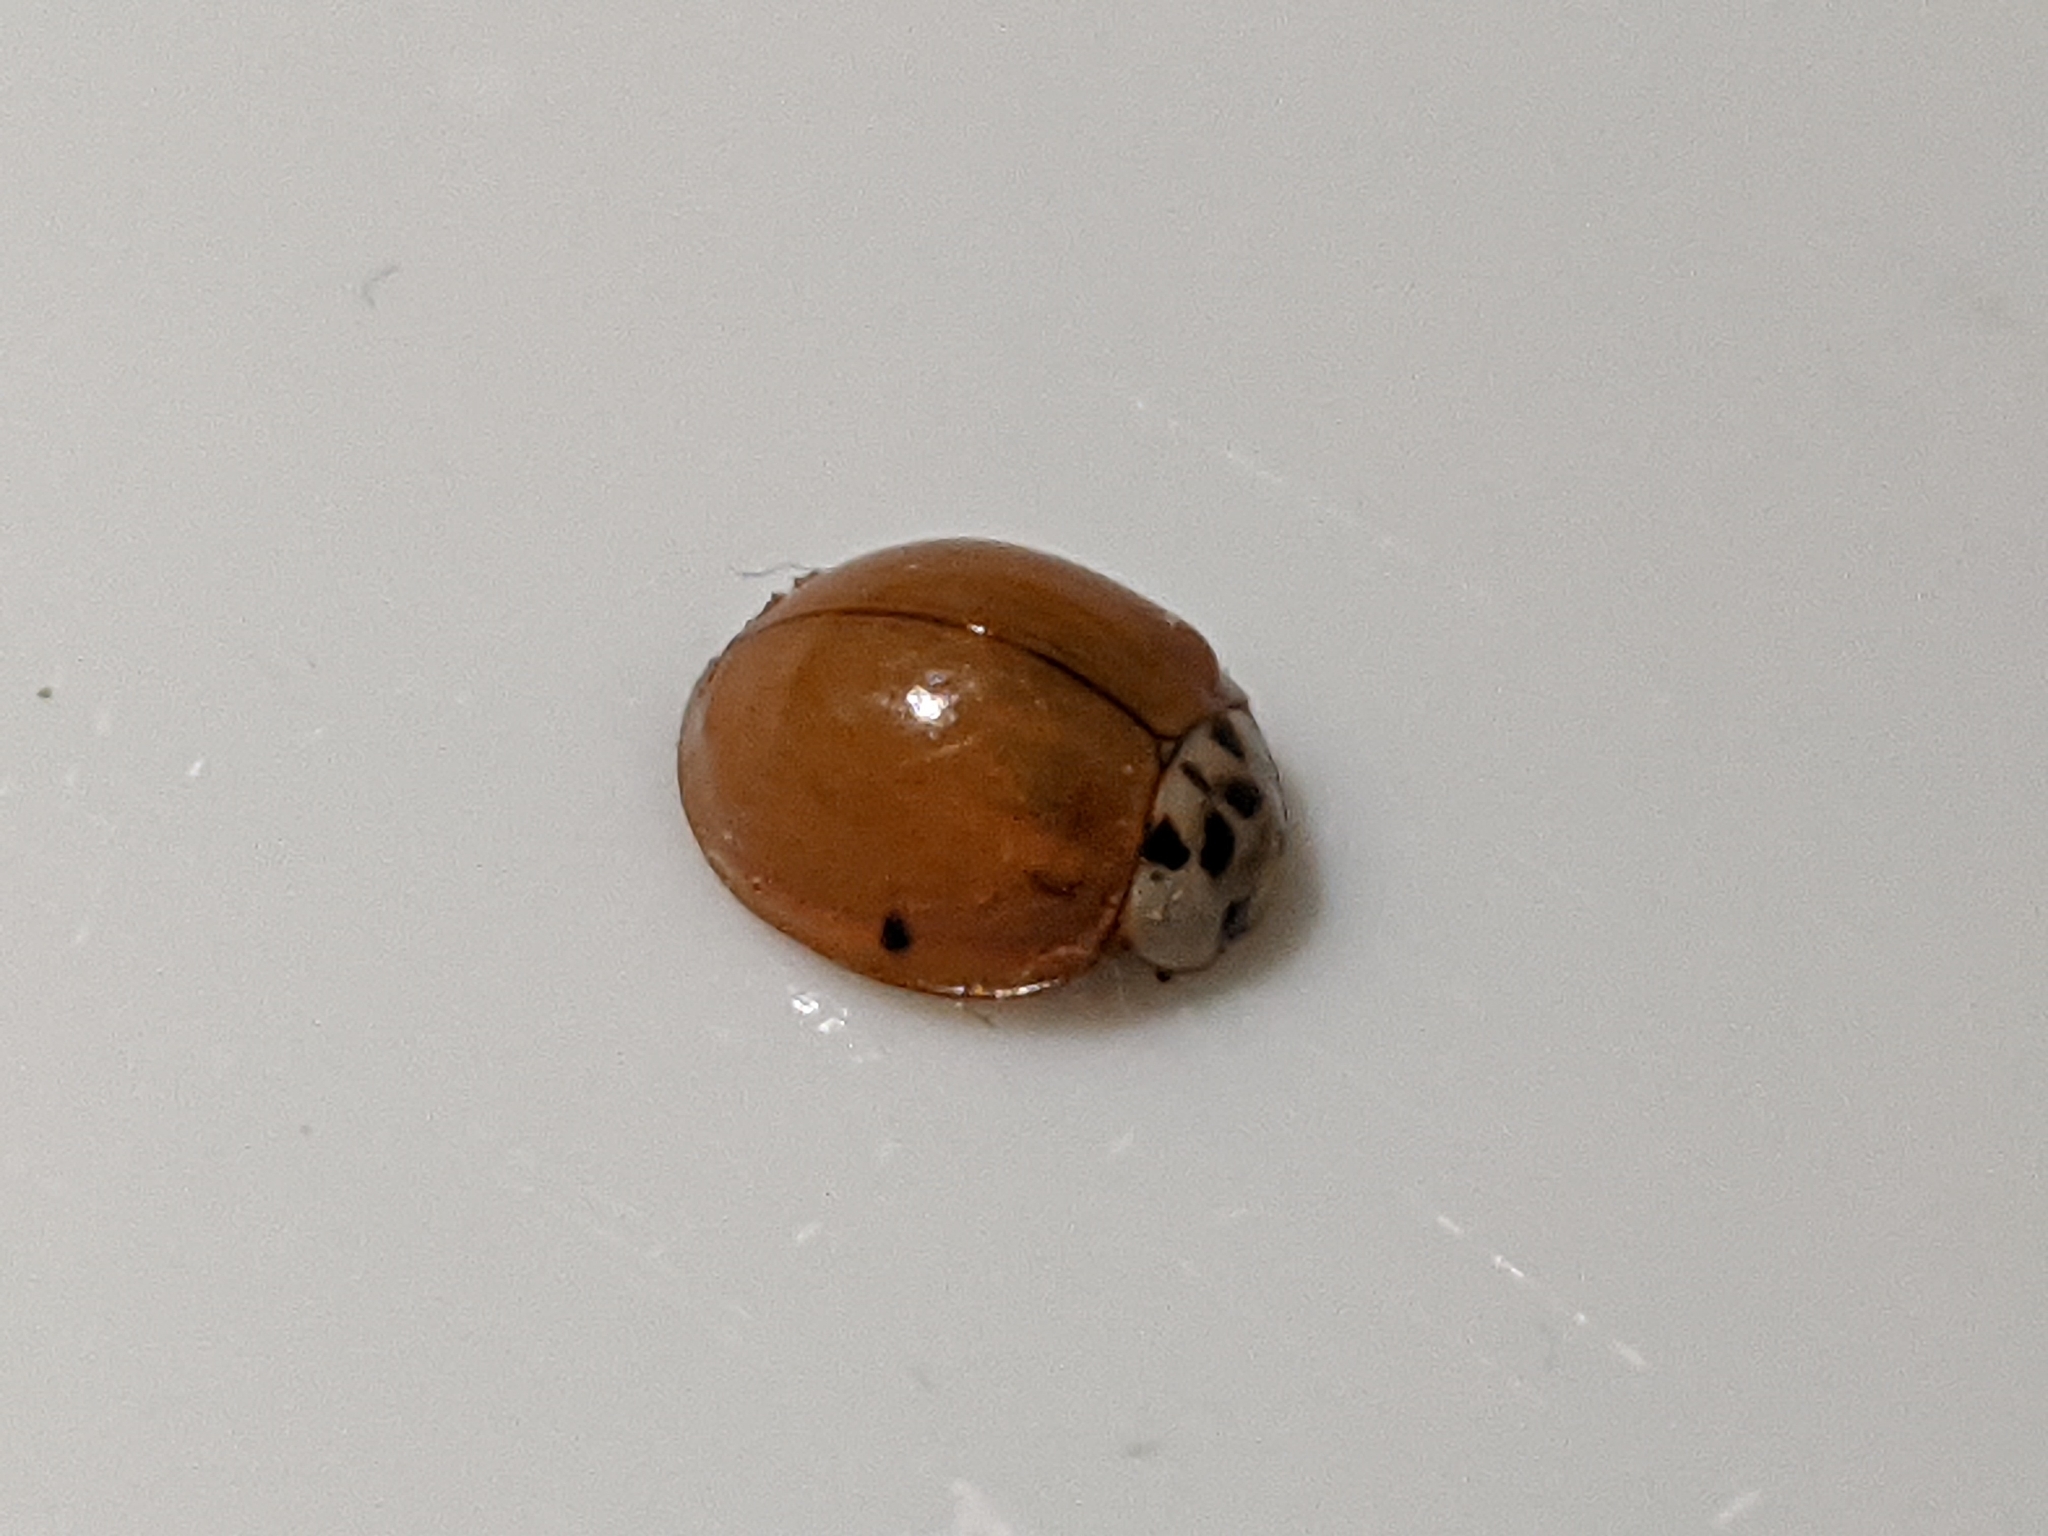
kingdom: Animalia
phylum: Arthropoda
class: Insecta
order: Coleoptera
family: Coccinellidae
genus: Harmonia
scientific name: Harmonia axyridis
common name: Harlequin ladybird
